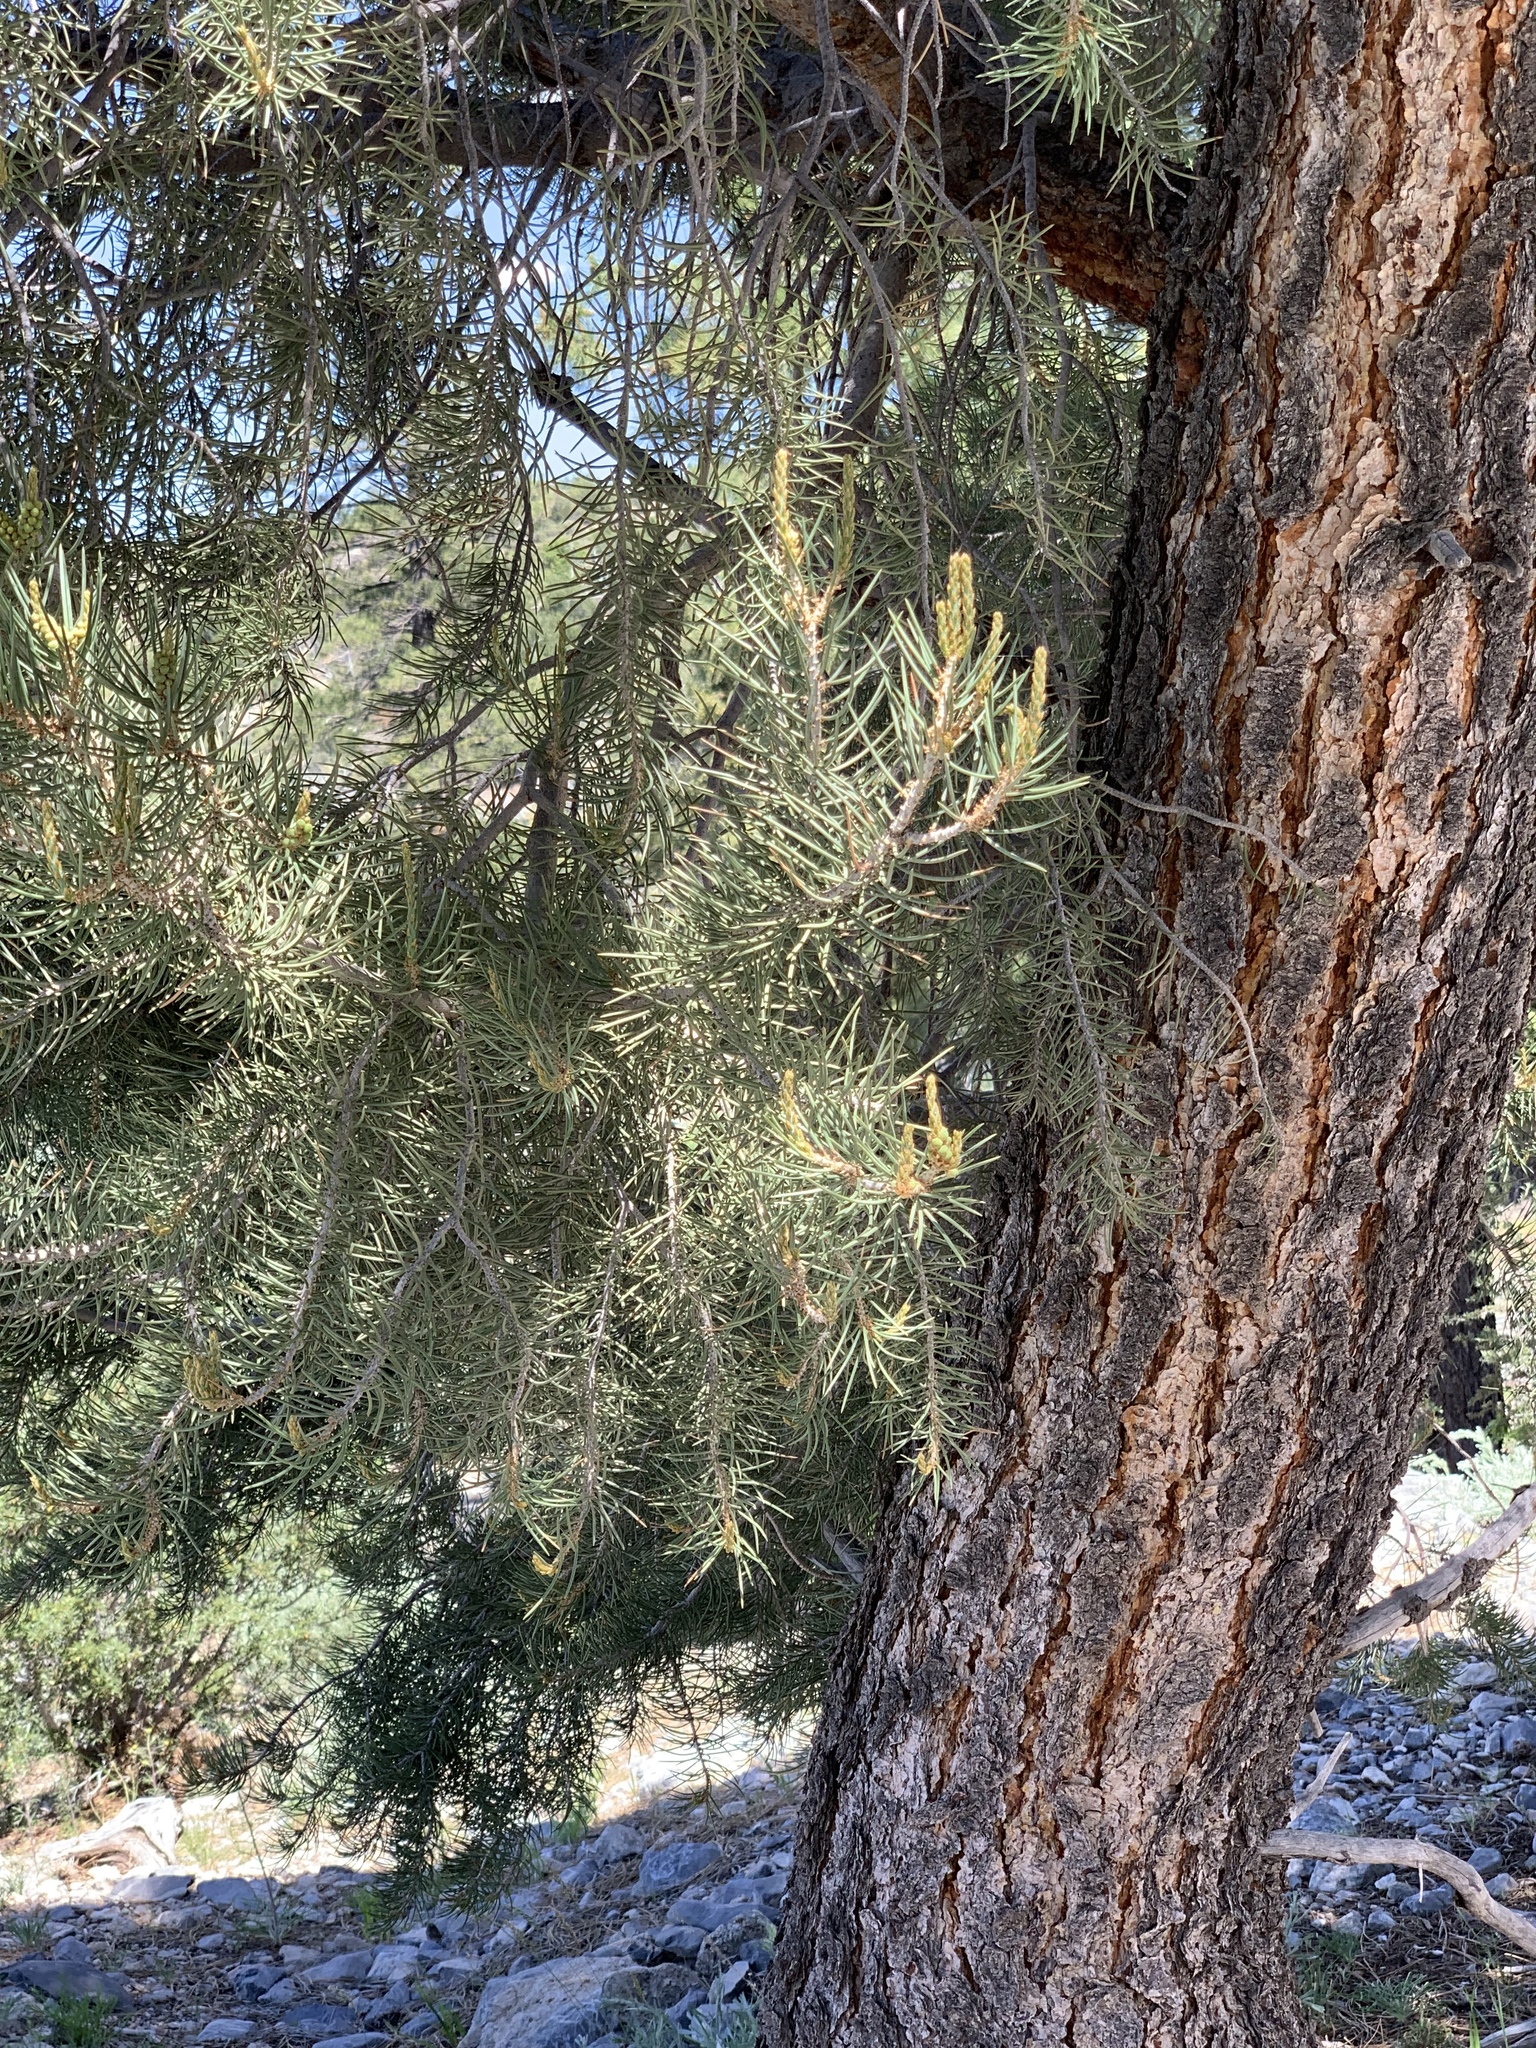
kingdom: Plantae
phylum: Tracheophyta
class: Pinopsida
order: Pinales
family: Pinaceae
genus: Pinus
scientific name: Pinus monophylla
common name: One-leaved nut pine
